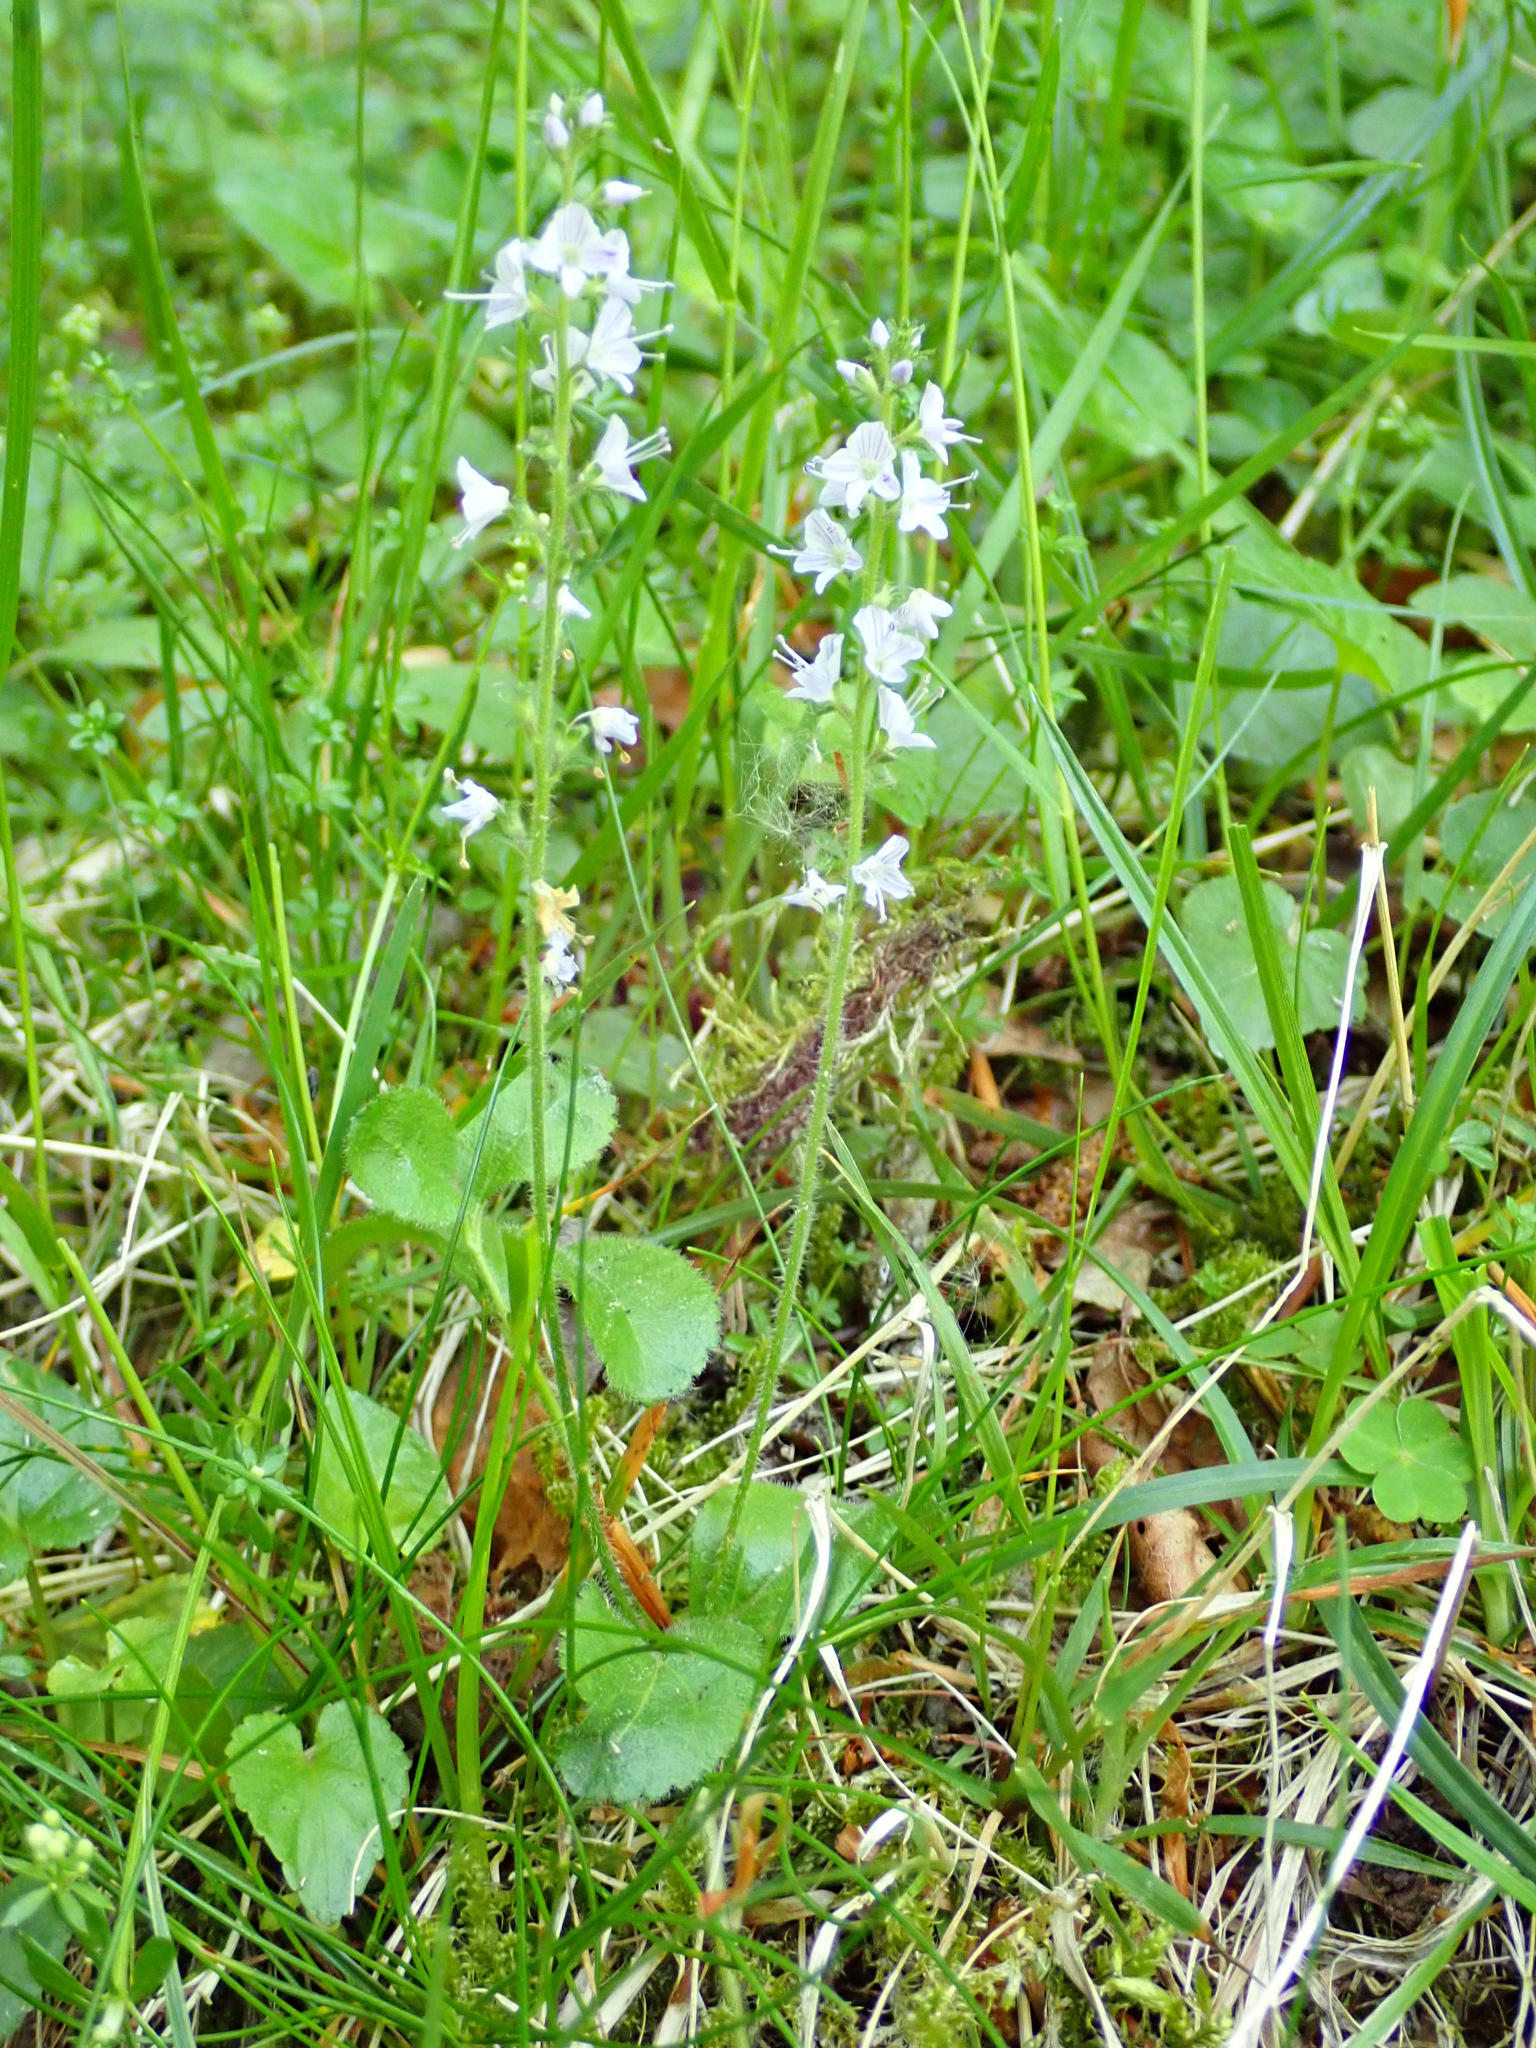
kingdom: Plantae
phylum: Tracheophyta
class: Magnoliopsida
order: Lamiales
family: Plantaginaceae
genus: Veronica
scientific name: Veronica officinalis
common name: Common speedwell
